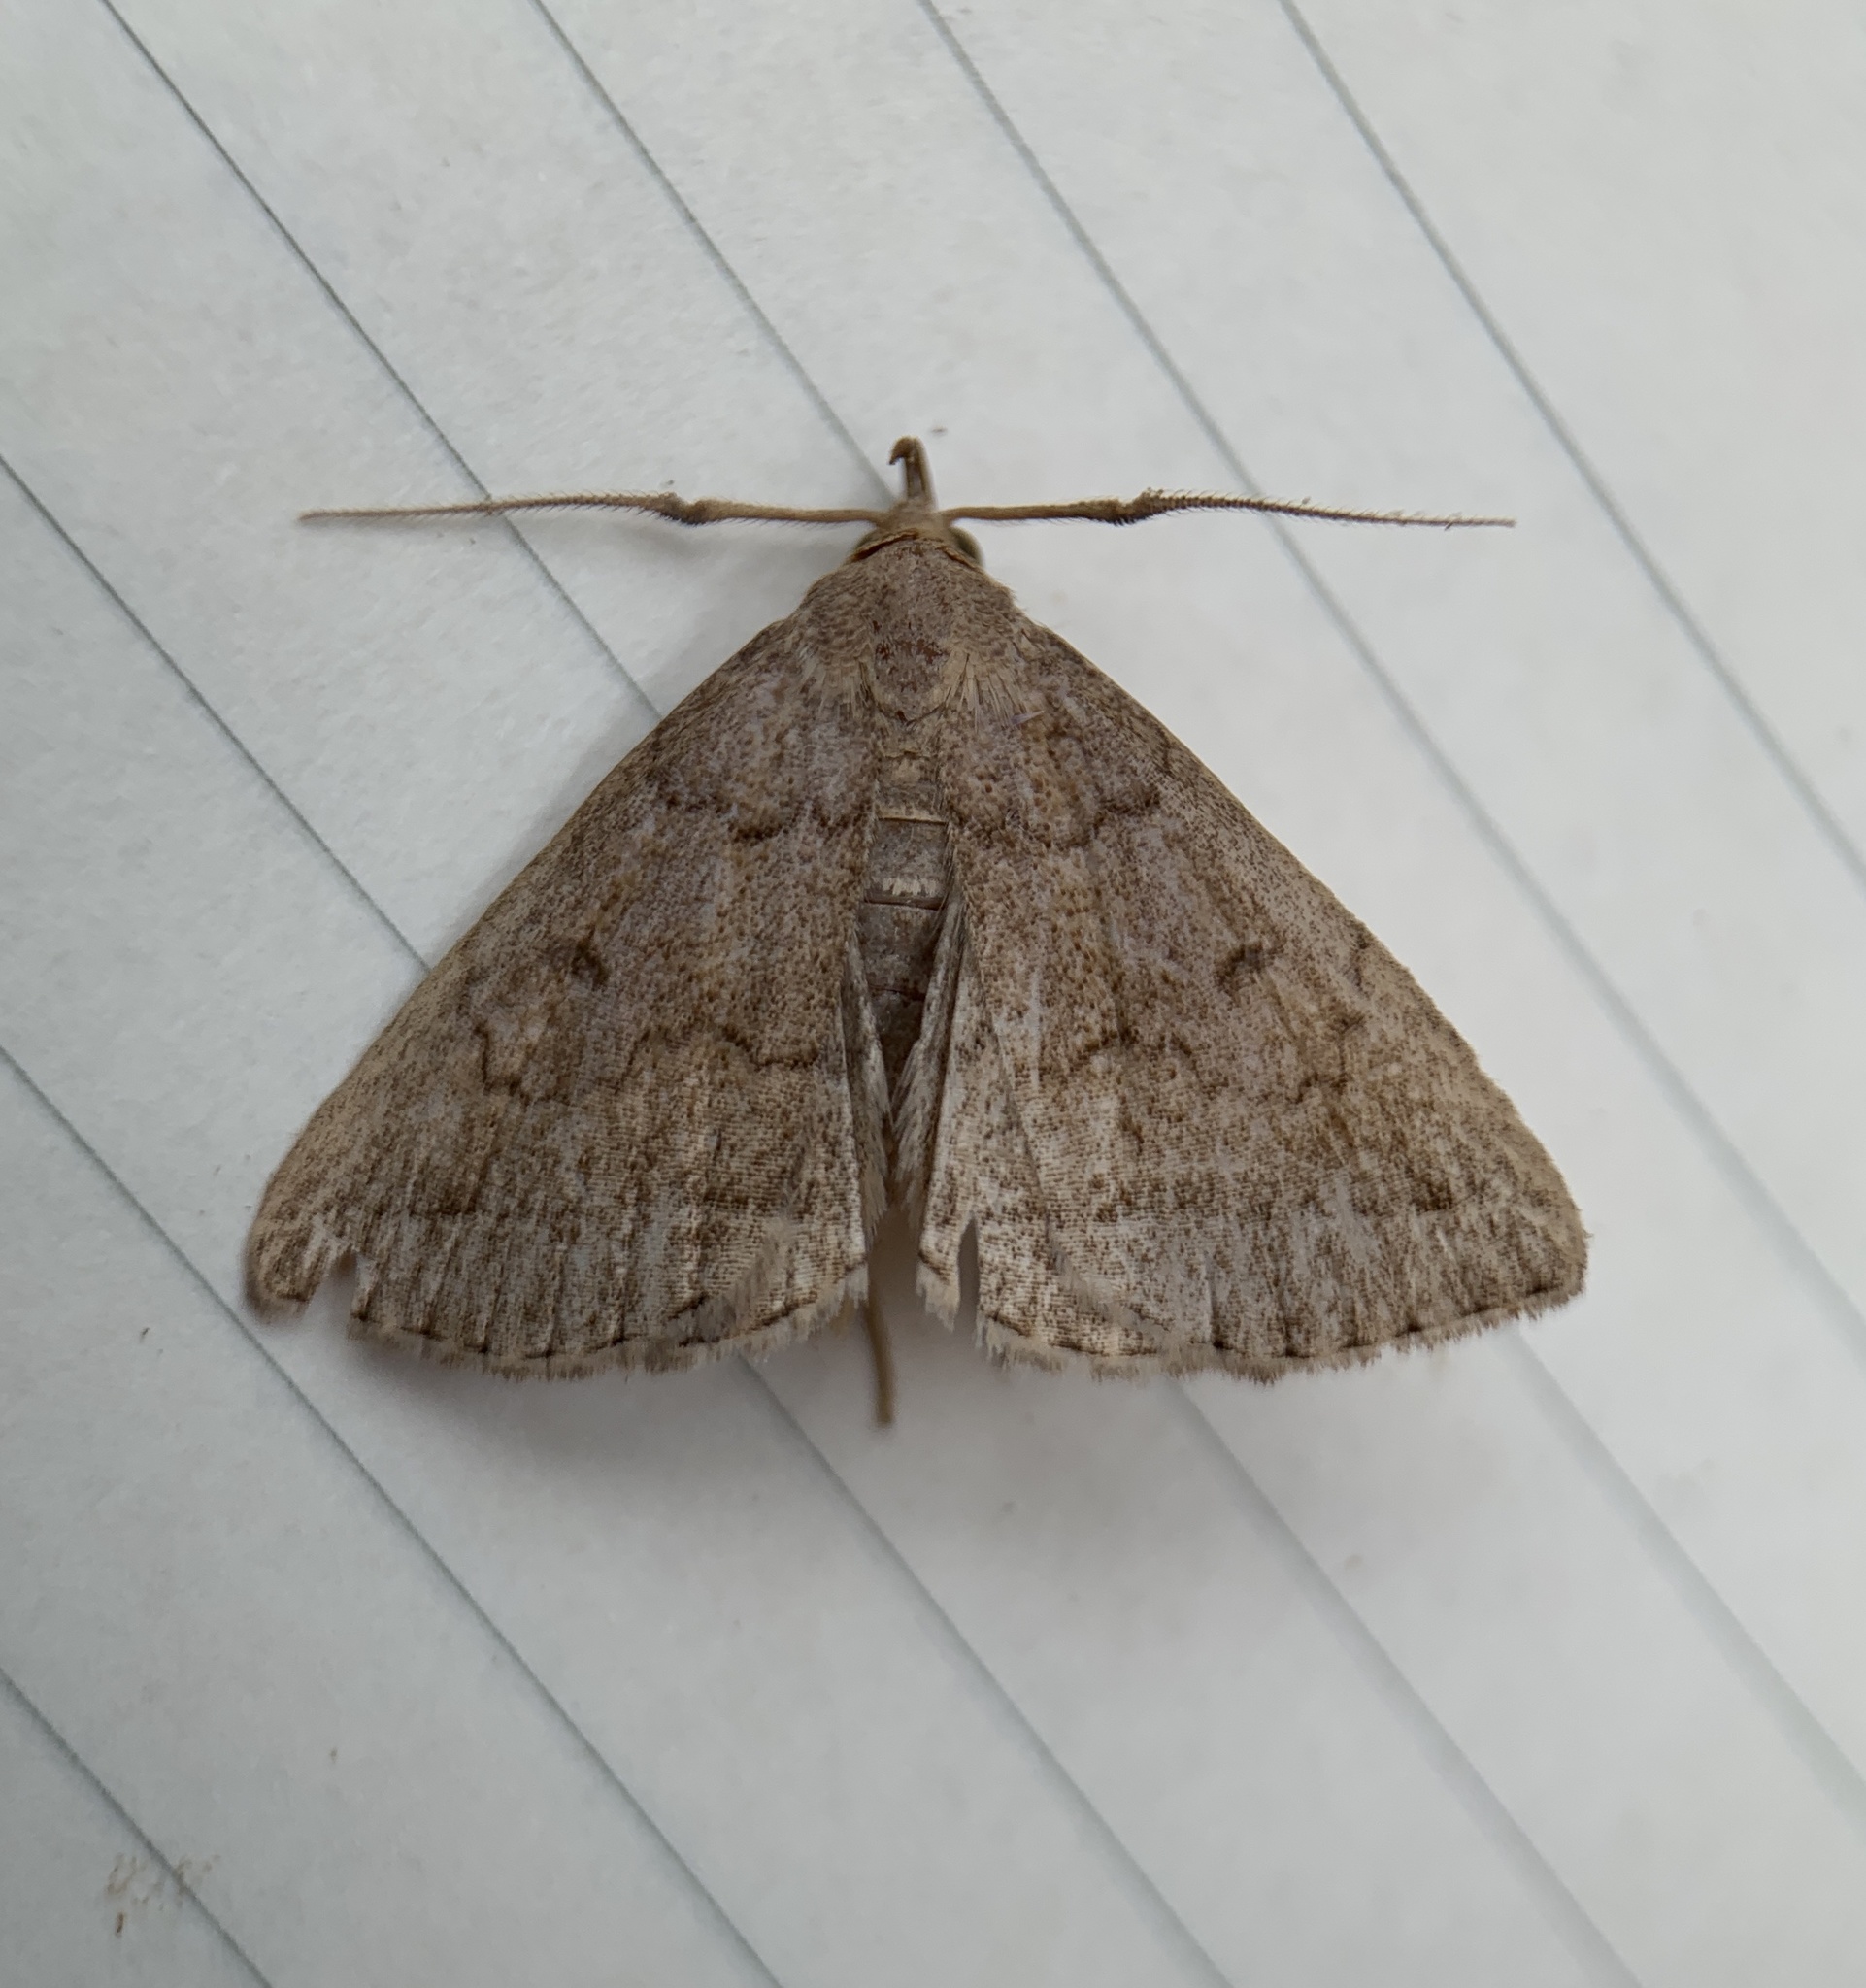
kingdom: Animalia
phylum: Arthropoda
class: Insecta
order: Lepidoptera
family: Erebidae
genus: Zanclognatha
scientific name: Zanclognatha jacchusalis
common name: Yellowish zanclognatha
